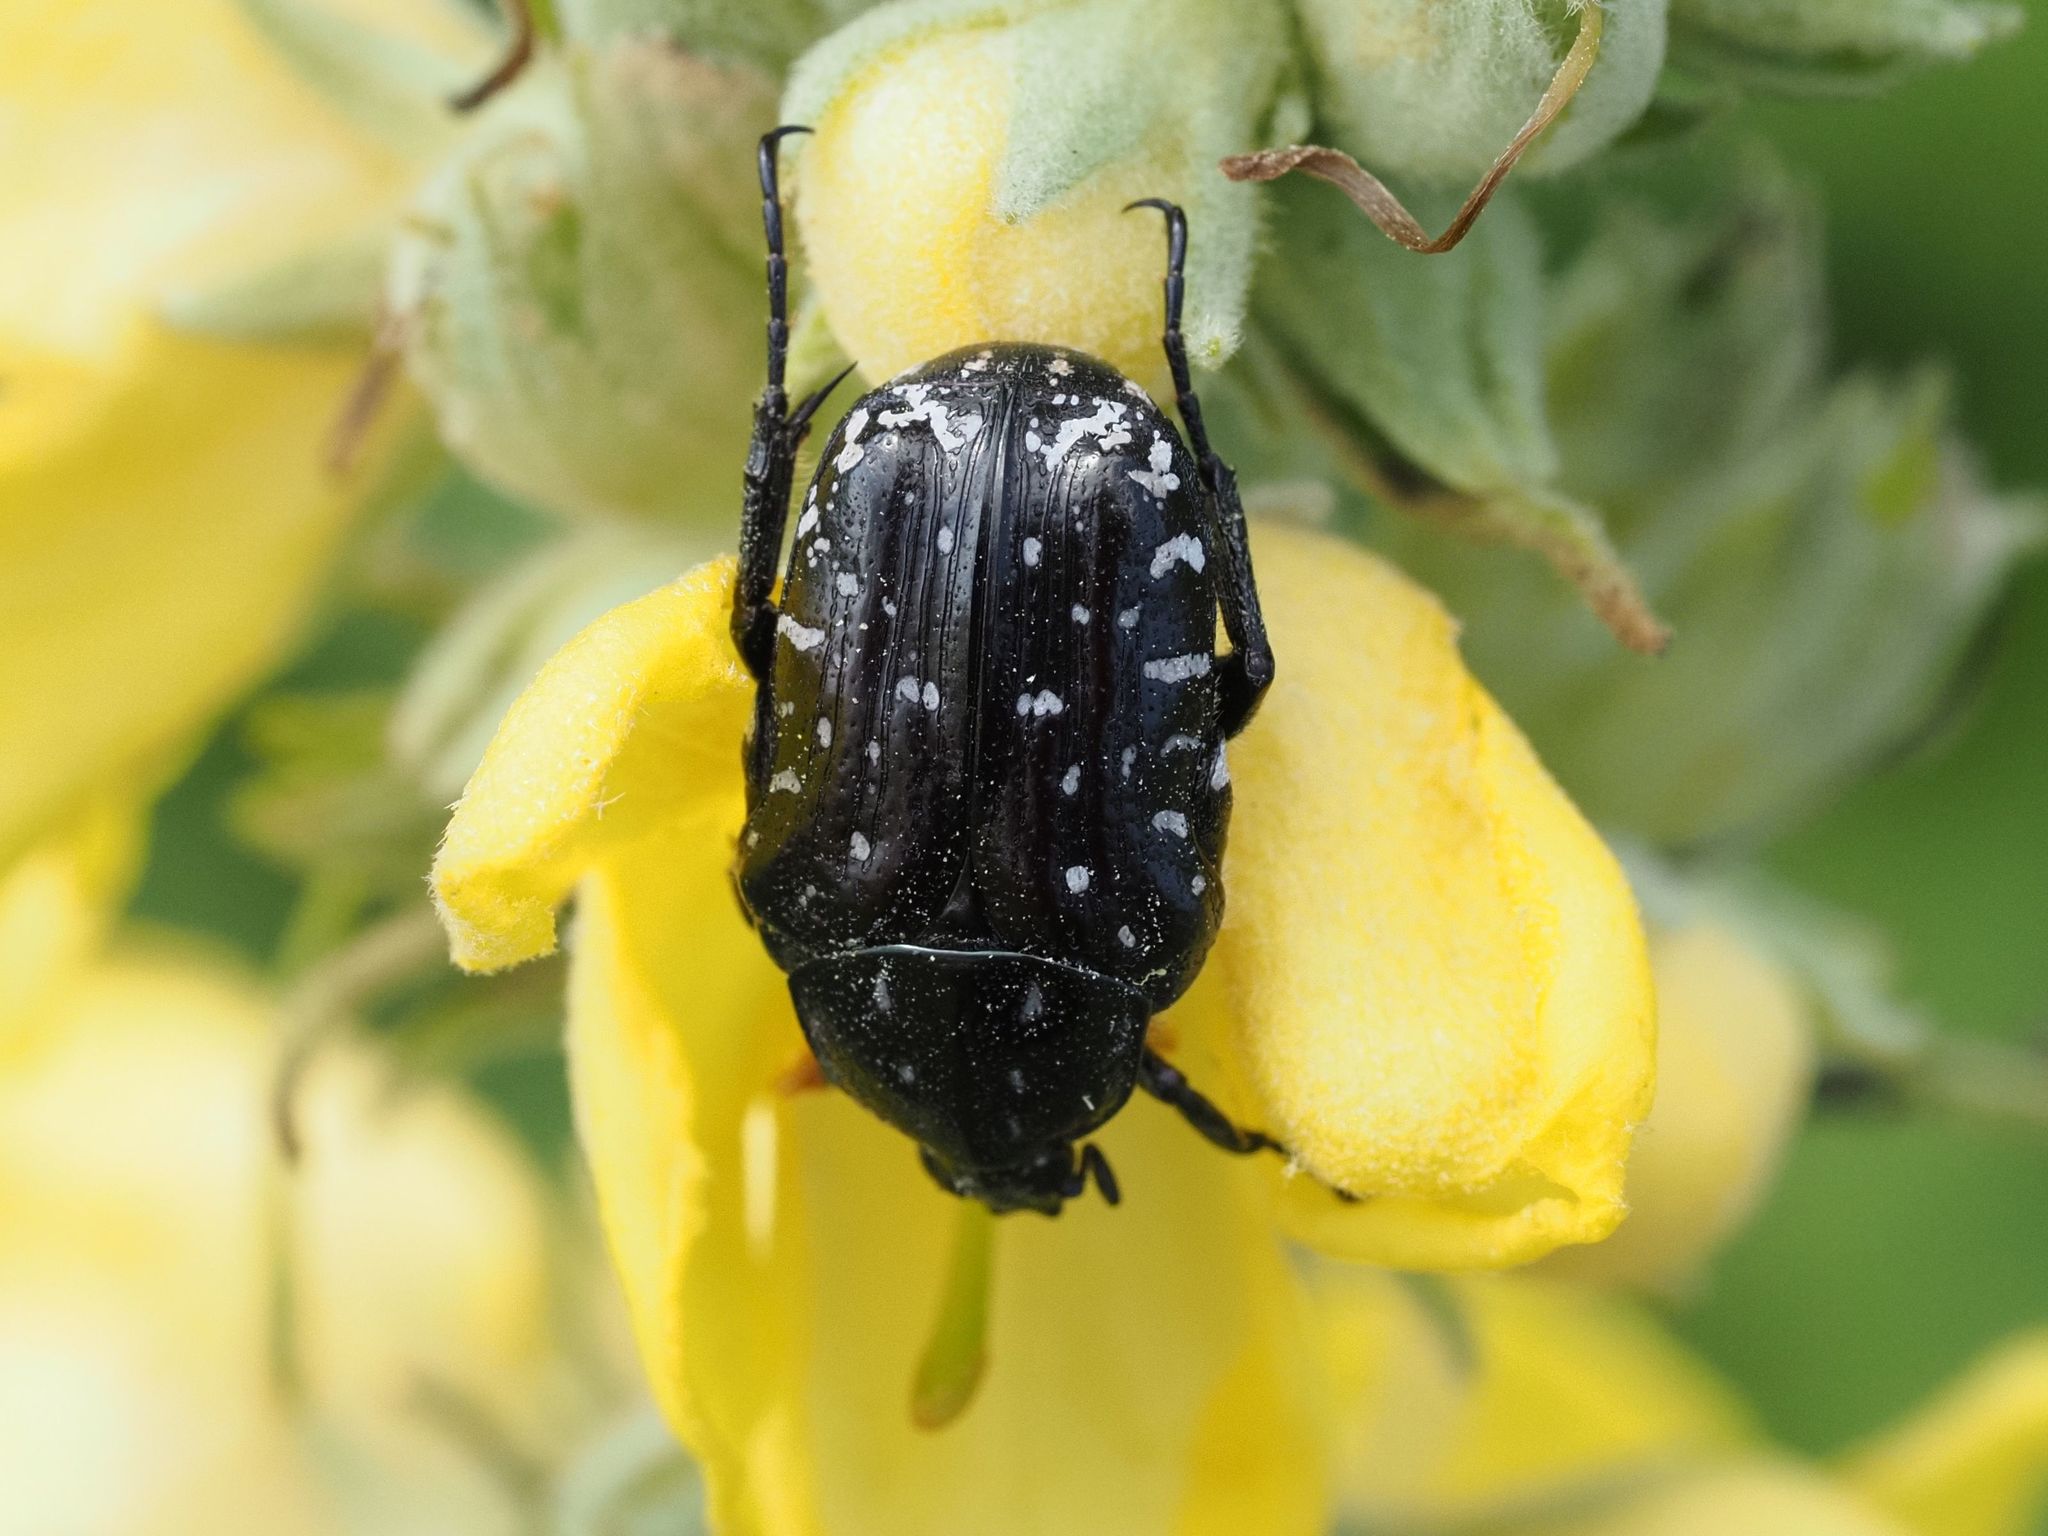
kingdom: Animalia
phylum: Arthropoda
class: Insecta
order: Coleoptera
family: Scarabaeidae
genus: Oxythyrea
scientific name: Oxythyrea funesta
